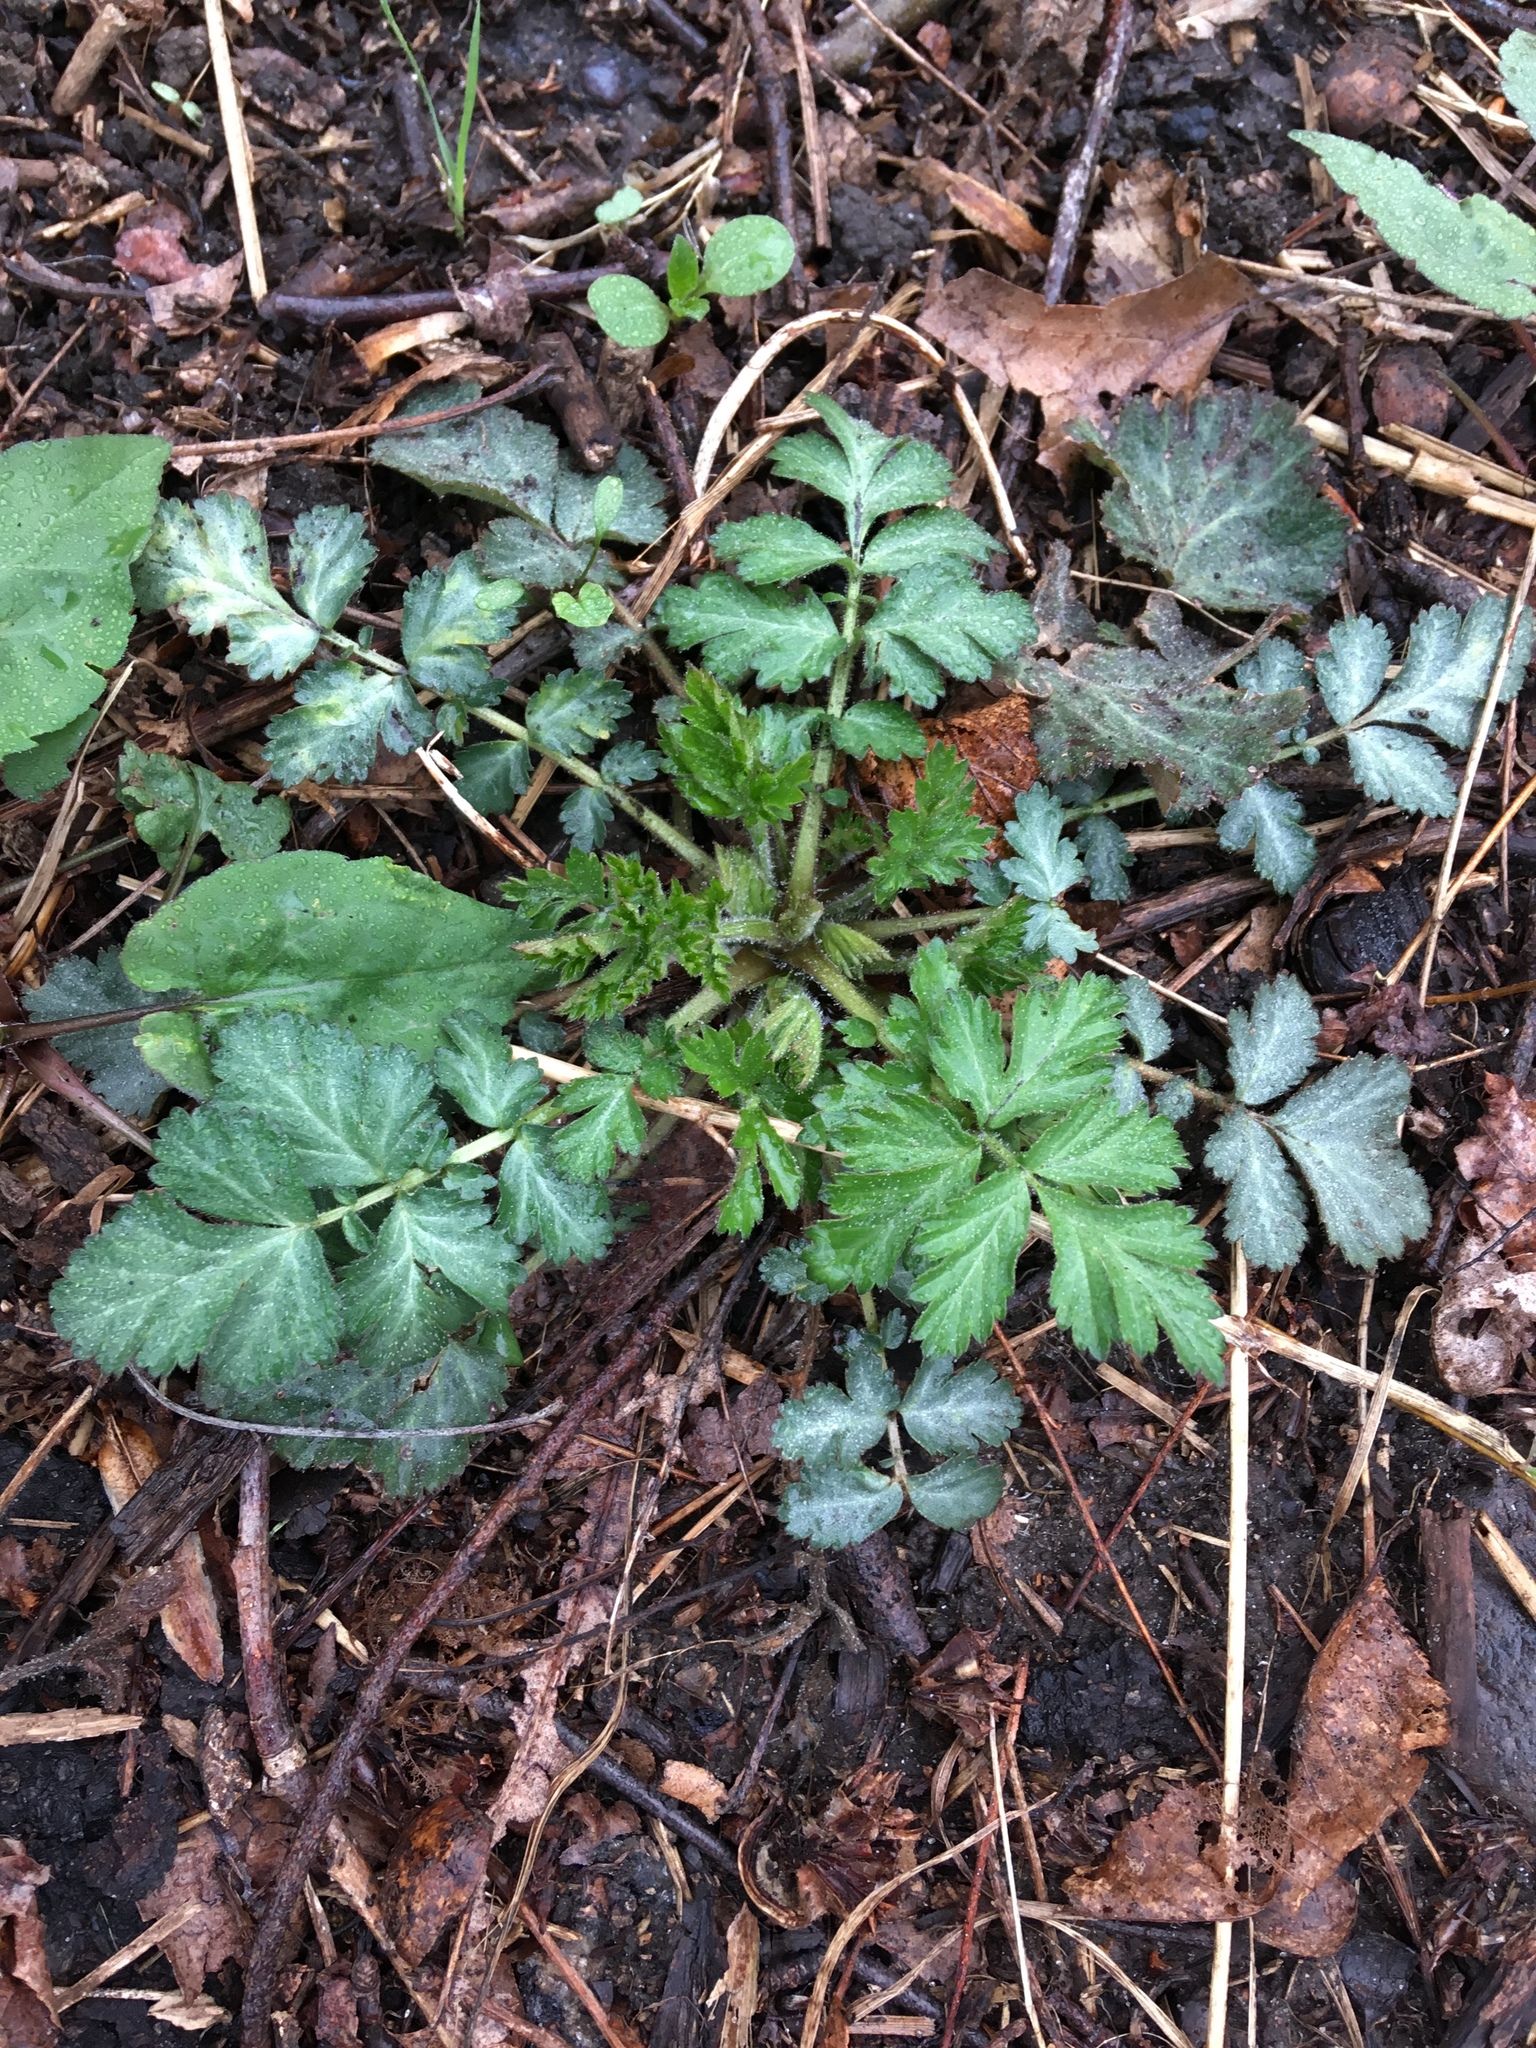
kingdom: Plantae
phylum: Tracheophyta
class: Magnoliopsida
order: Rosales
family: Rosaceae
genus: Geum
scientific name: Geum canadense
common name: White avens
